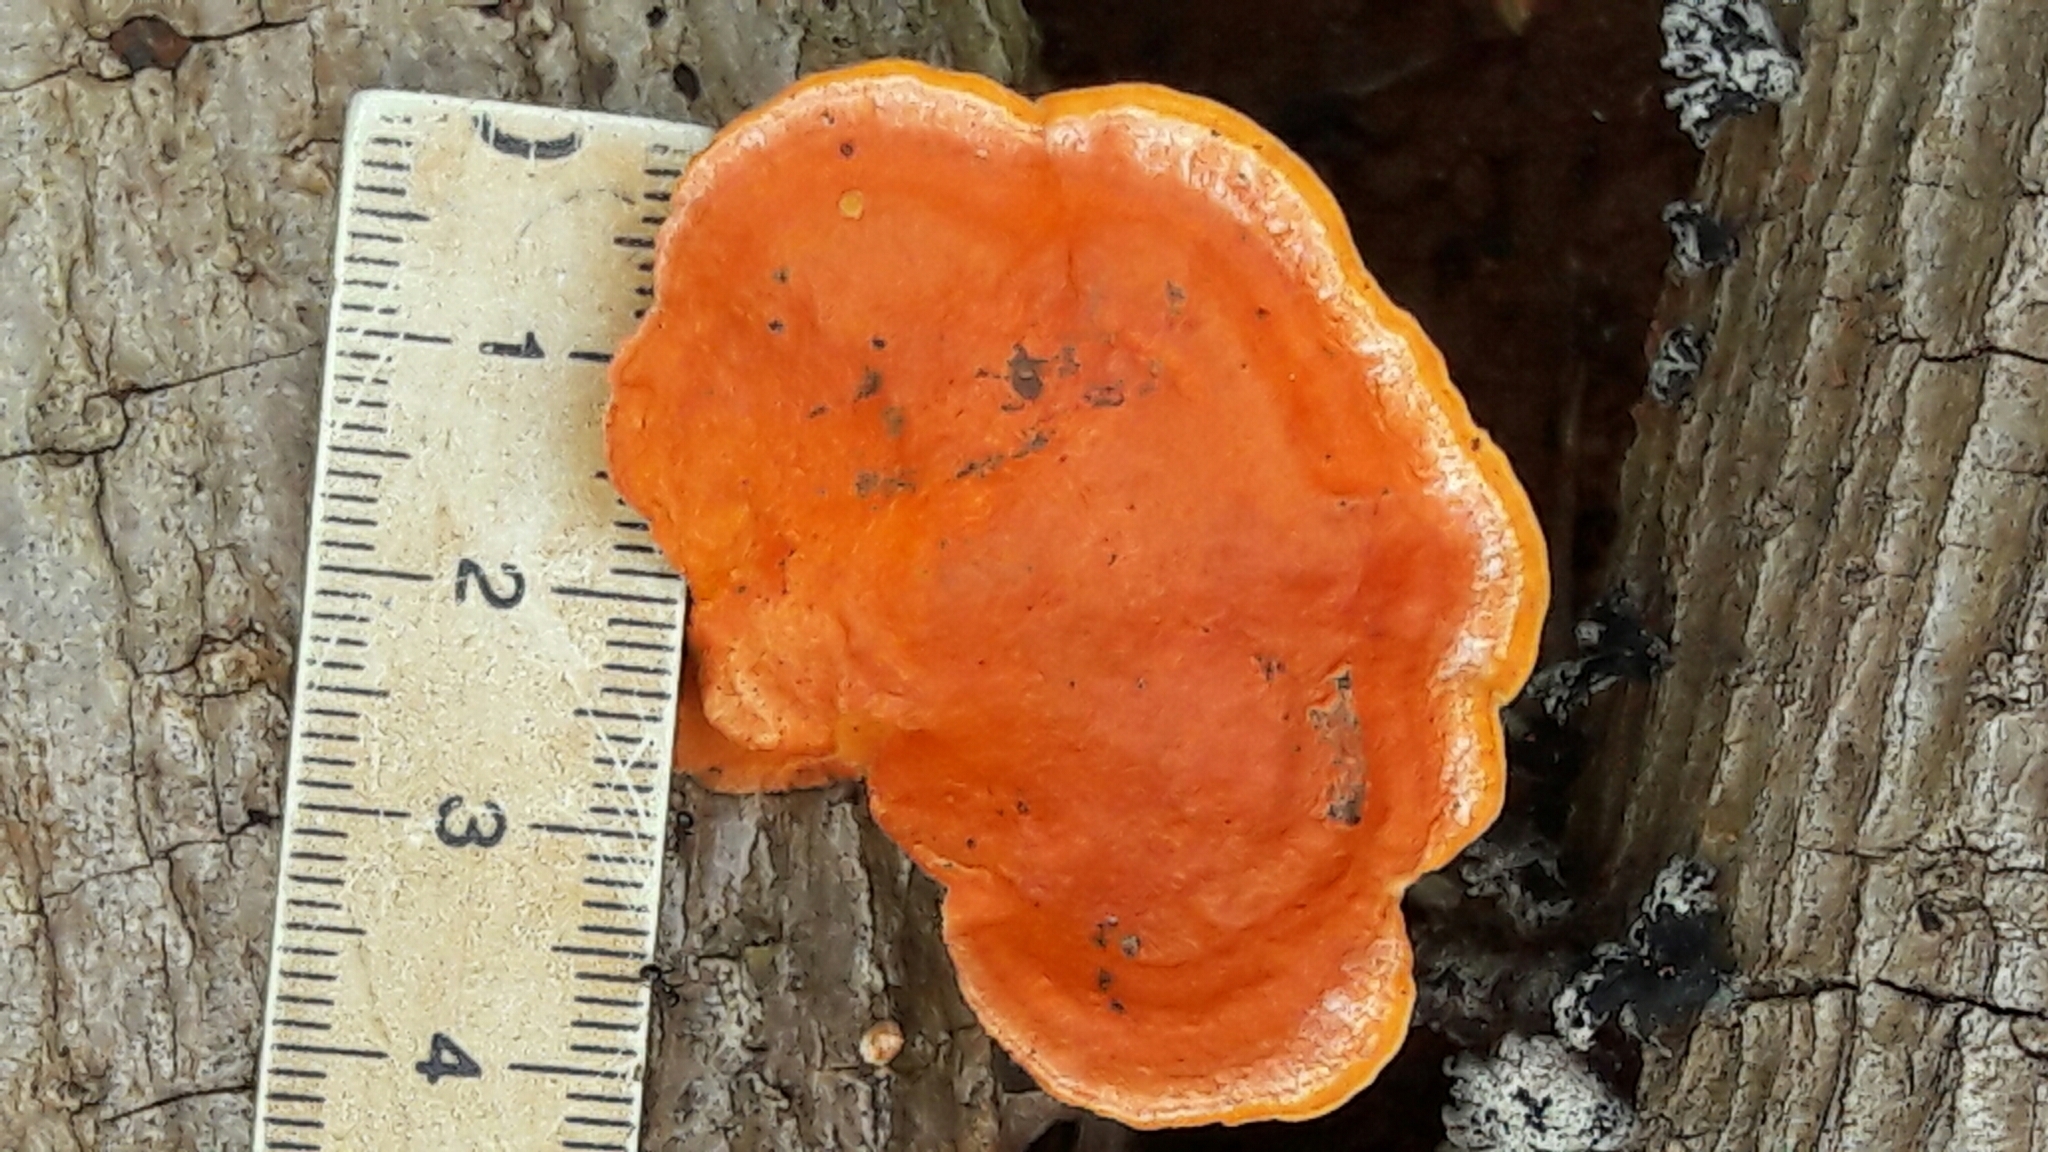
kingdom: Fungi
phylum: Basidiomycota
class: Agaricomycetes
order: Polyporales
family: Polyporaceae
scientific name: Polyporaceae
